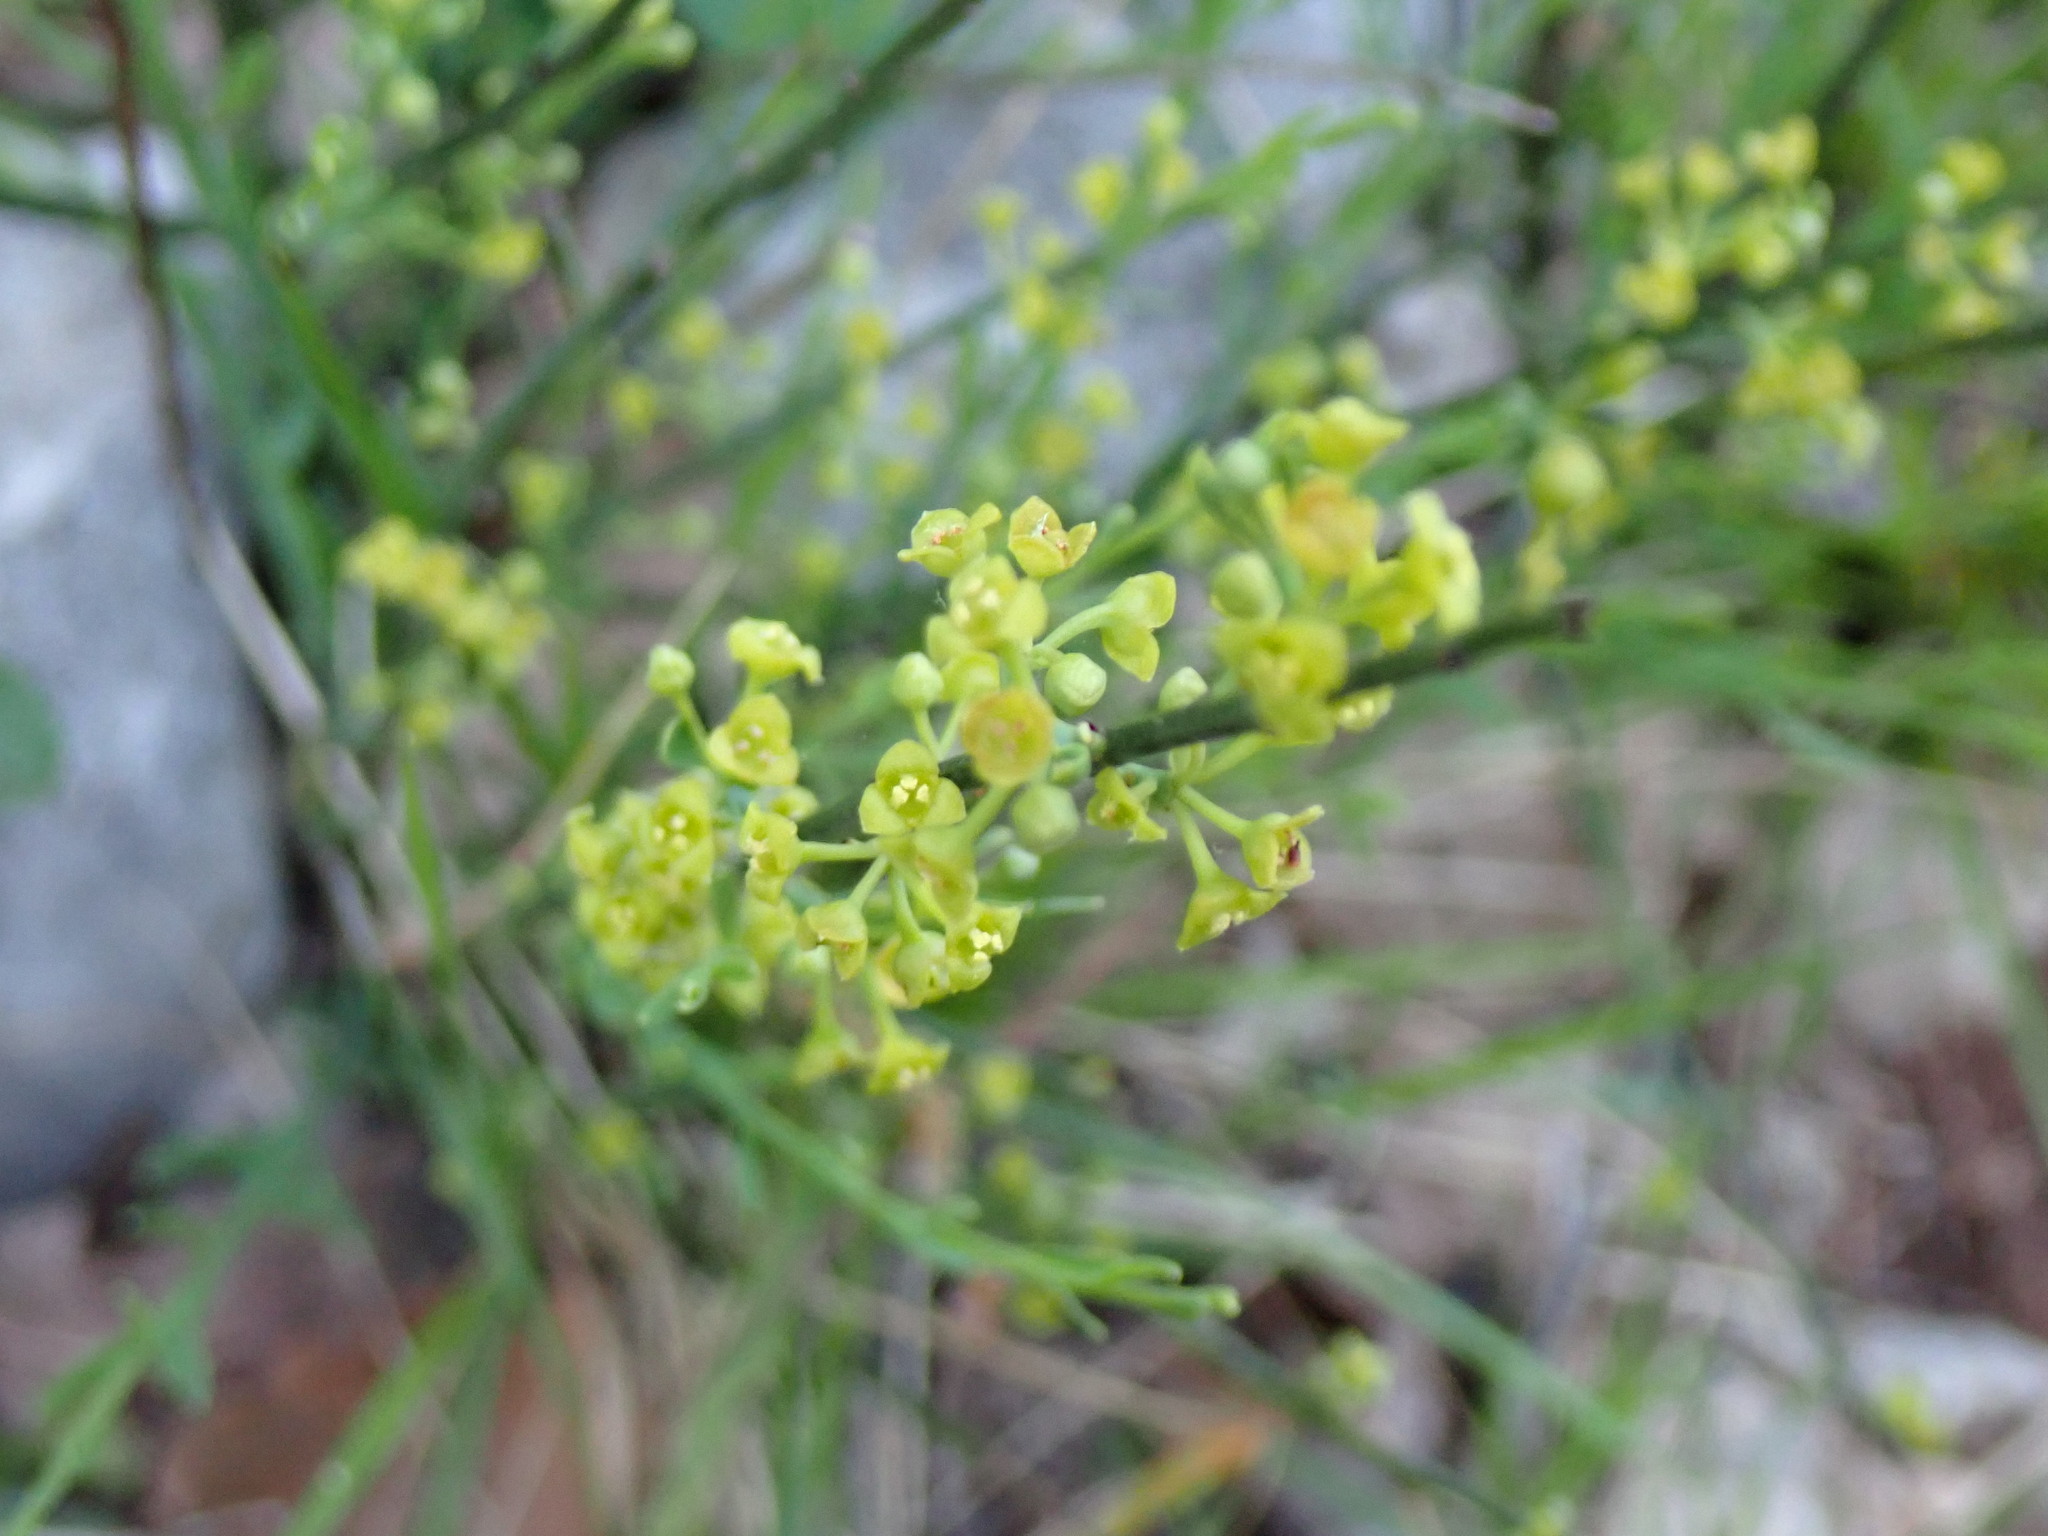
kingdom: Plantae
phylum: Tracheophyta
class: Magnoliopsida
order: Santalales
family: Santalaceae
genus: Osyris
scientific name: Osyris alba
